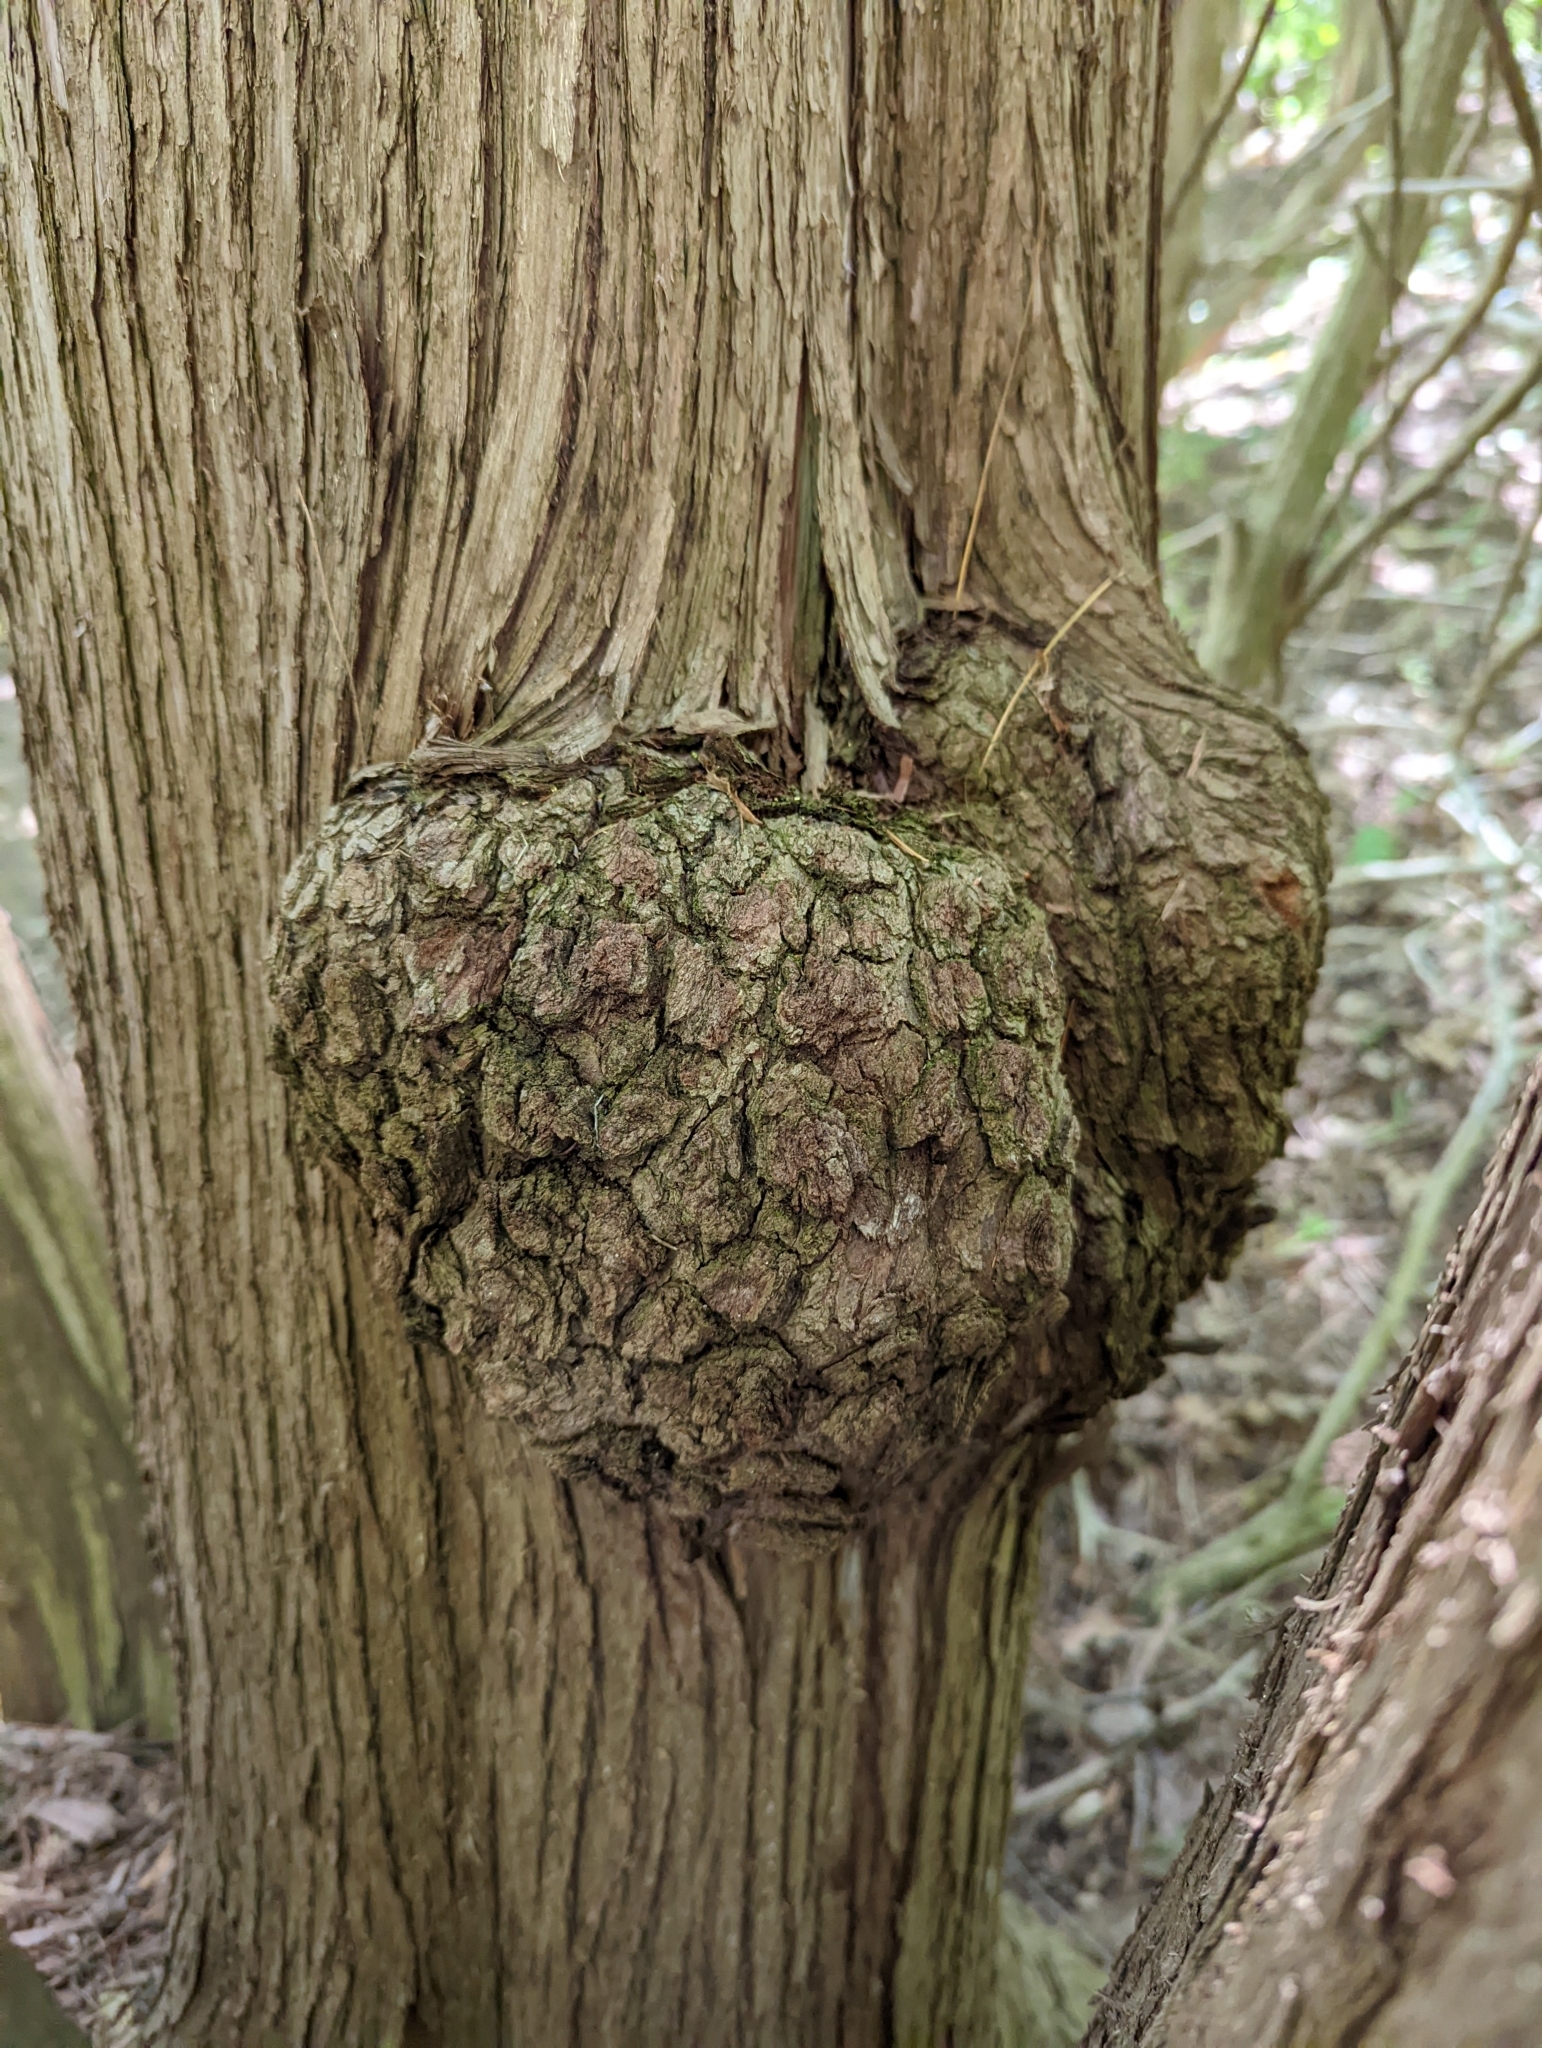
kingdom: Bacteria
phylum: Proteobacteria
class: Alphaproteobacteria
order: Rhizobiales
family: Rhizobiaceae
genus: Rhizobium
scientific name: Rhizobium Agrobacterium radiobacter
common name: Bacterial crown gall
